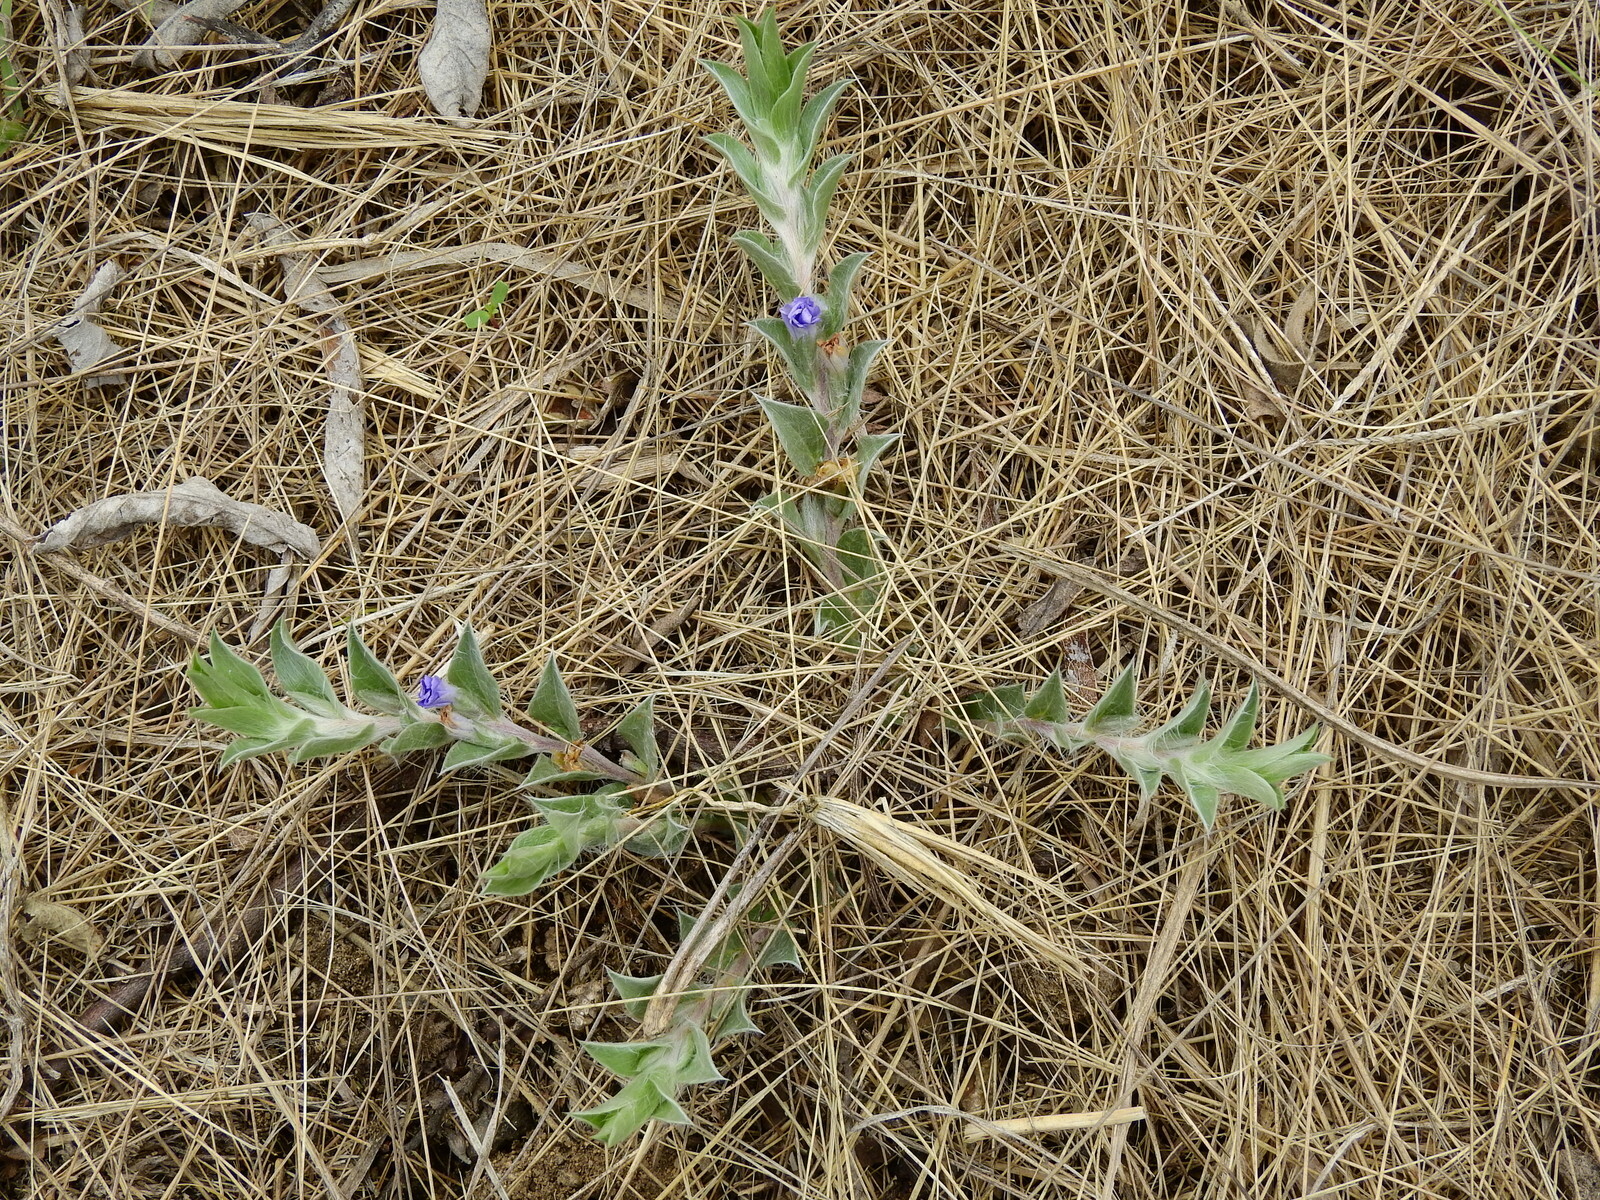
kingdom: Plantae
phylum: Tracheophyta
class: Magnoliopsida
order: Solanales
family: Convolvulaceae
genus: Evolvulus
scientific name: Evolvulus sericeus
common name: Blue dots
